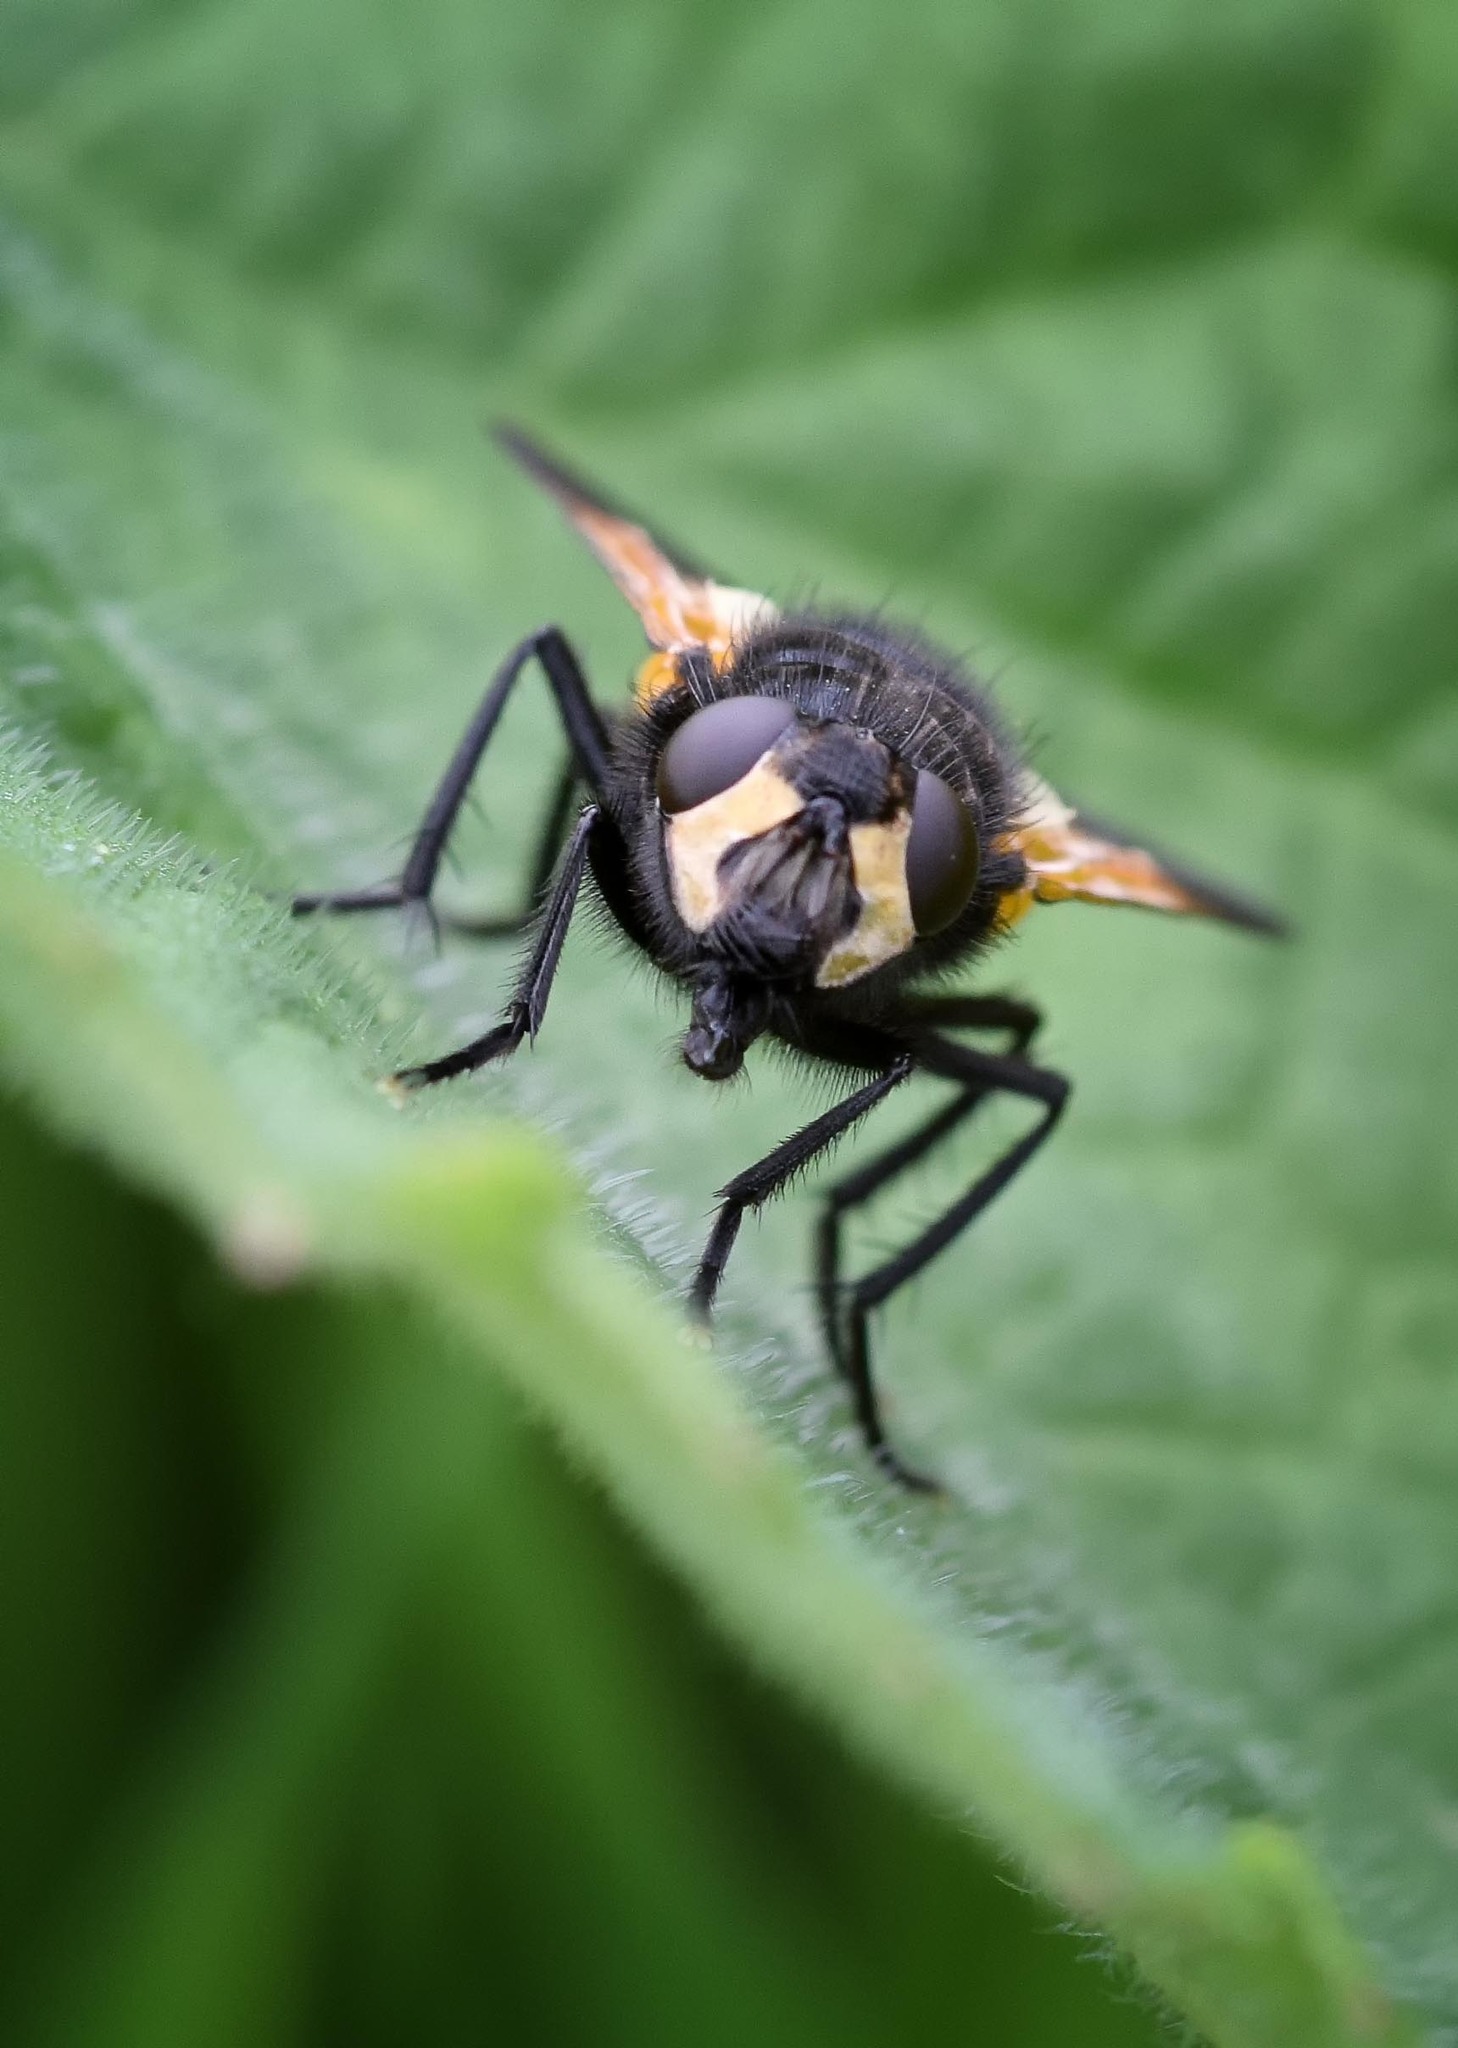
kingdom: Animalia
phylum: Arthropoda
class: Insecta
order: Diptera
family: Muscidae
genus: Mesembrina
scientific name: Mesembrina meridiana
